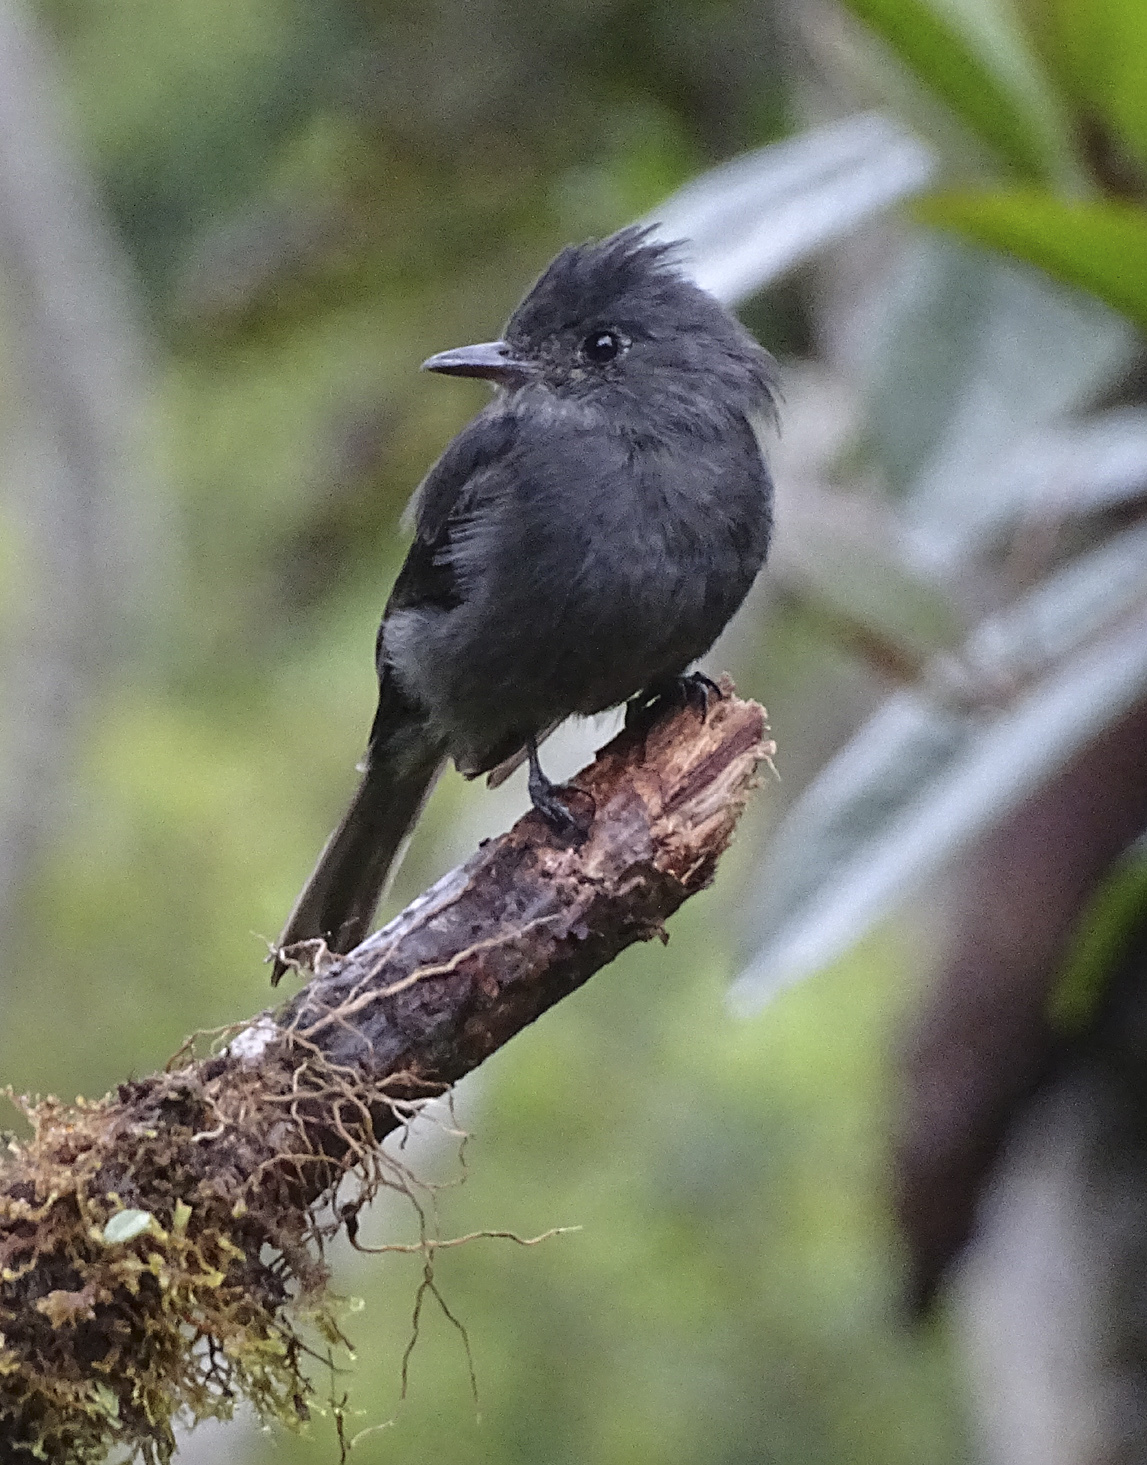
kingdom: Animalia
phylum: Chordata
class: Aves
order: Passeriformes
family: Tyrannidae
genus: Contopus
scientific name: Contopus fumigatus
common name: Smoke-colored pewee
